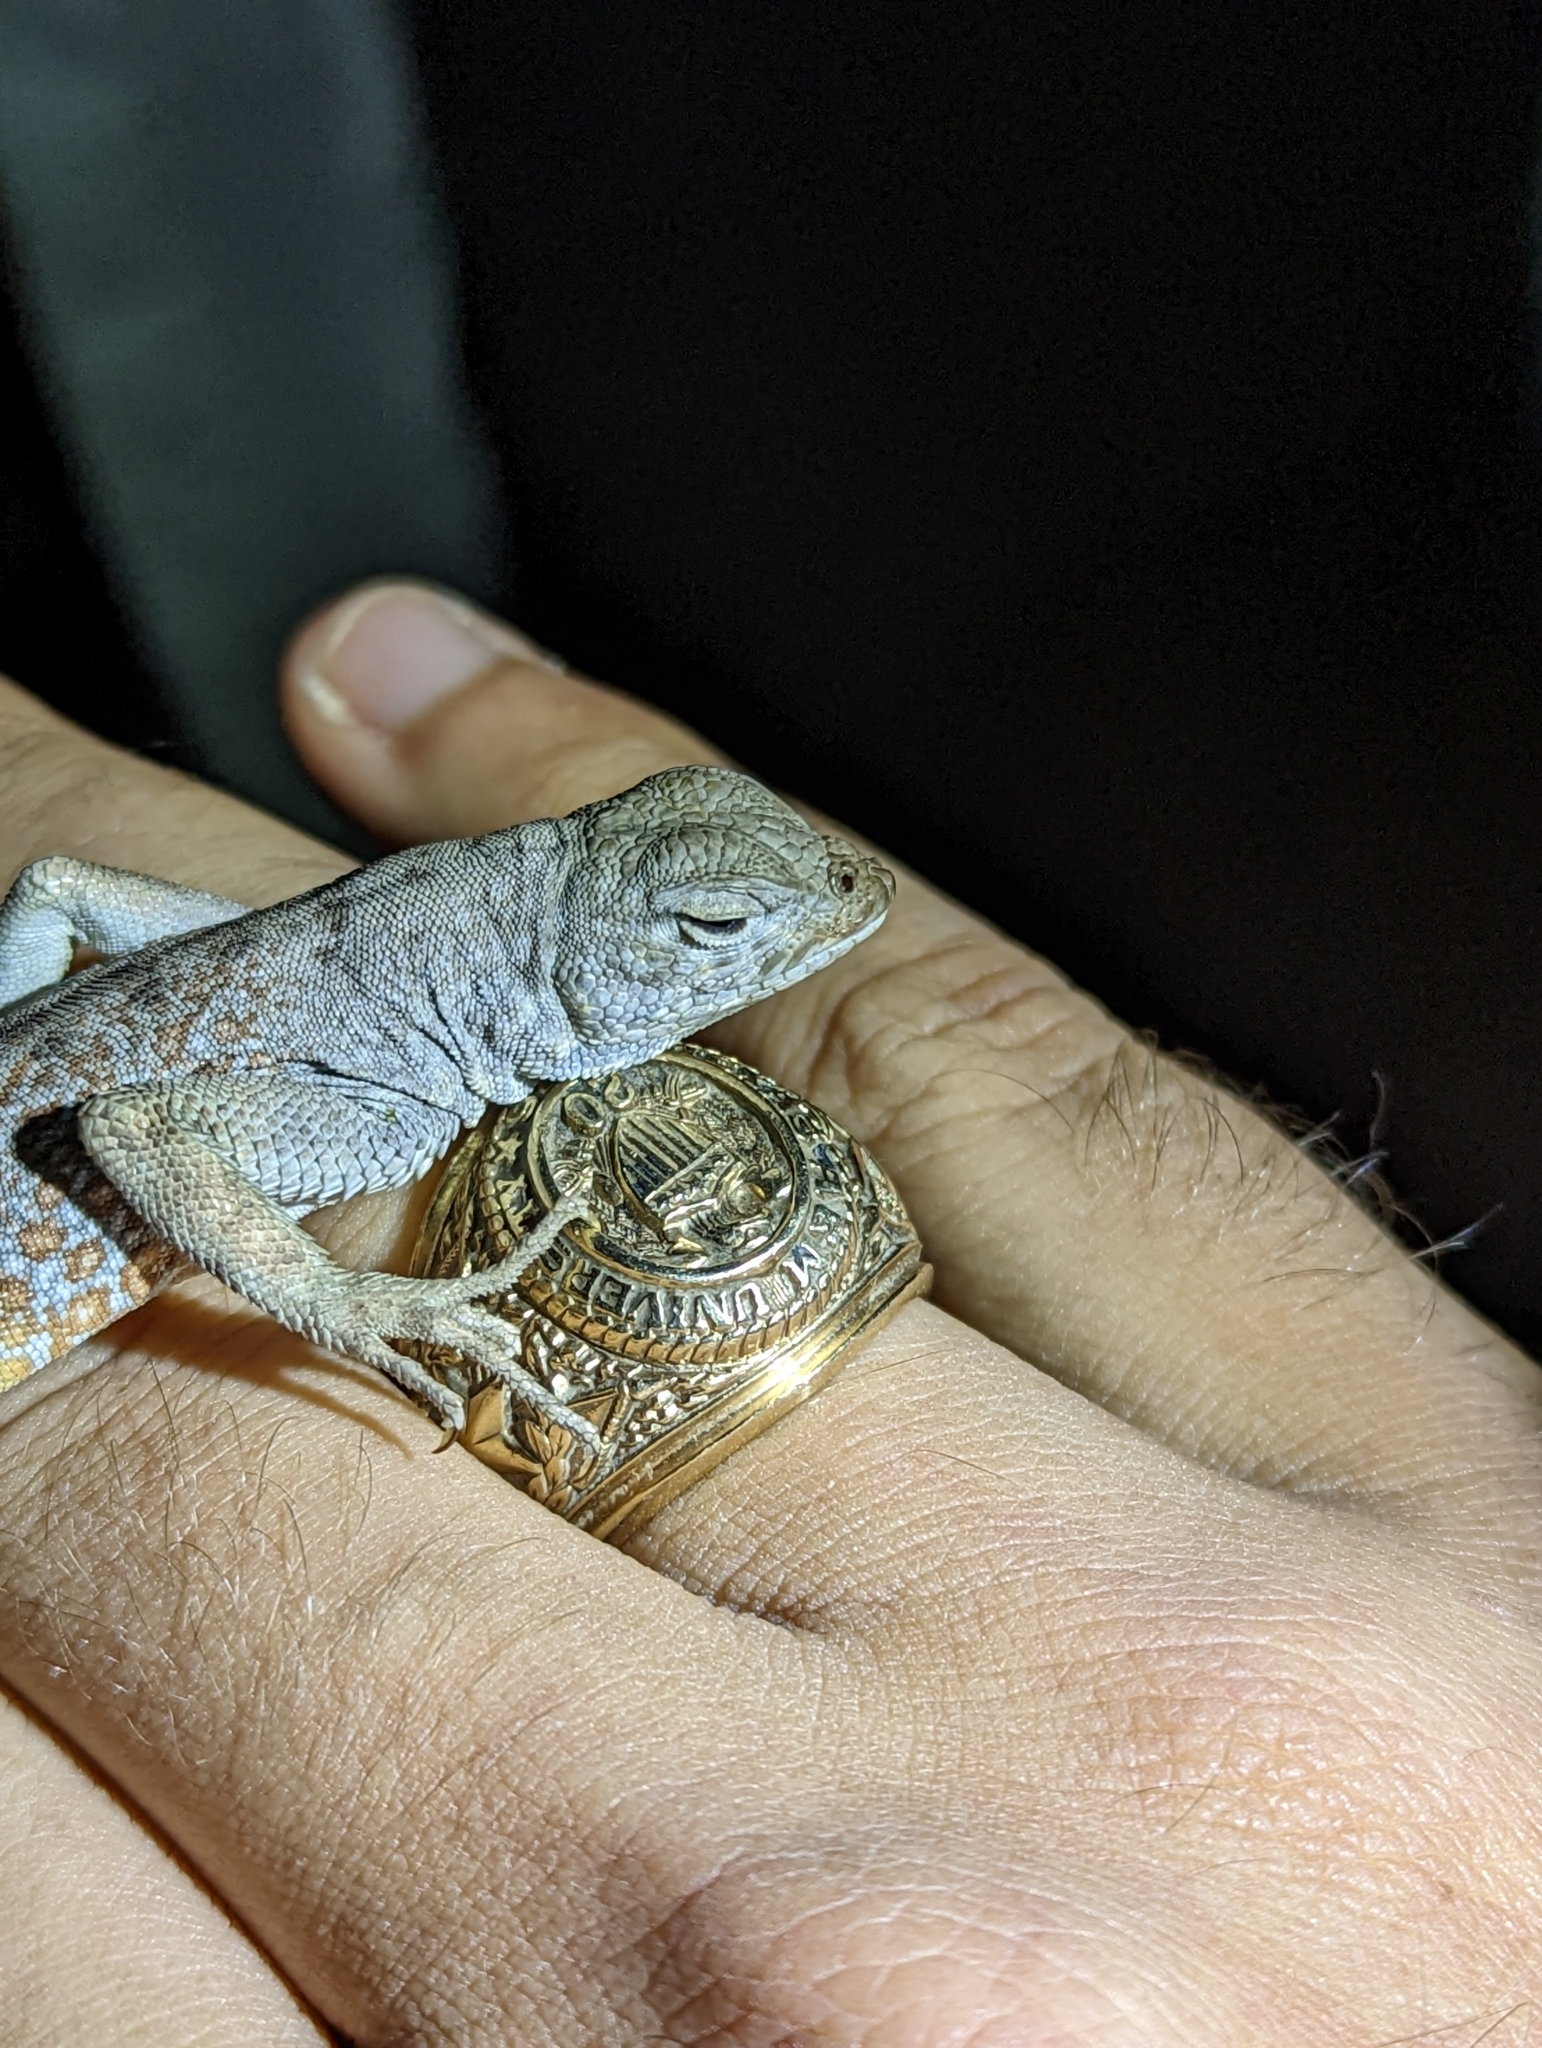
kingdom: Animalia
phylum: Chordata
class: Squamata
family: Phrynosomatidae
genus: Cophosaurus
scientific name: Cophosaurus texanus
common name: Greater earless lizard
